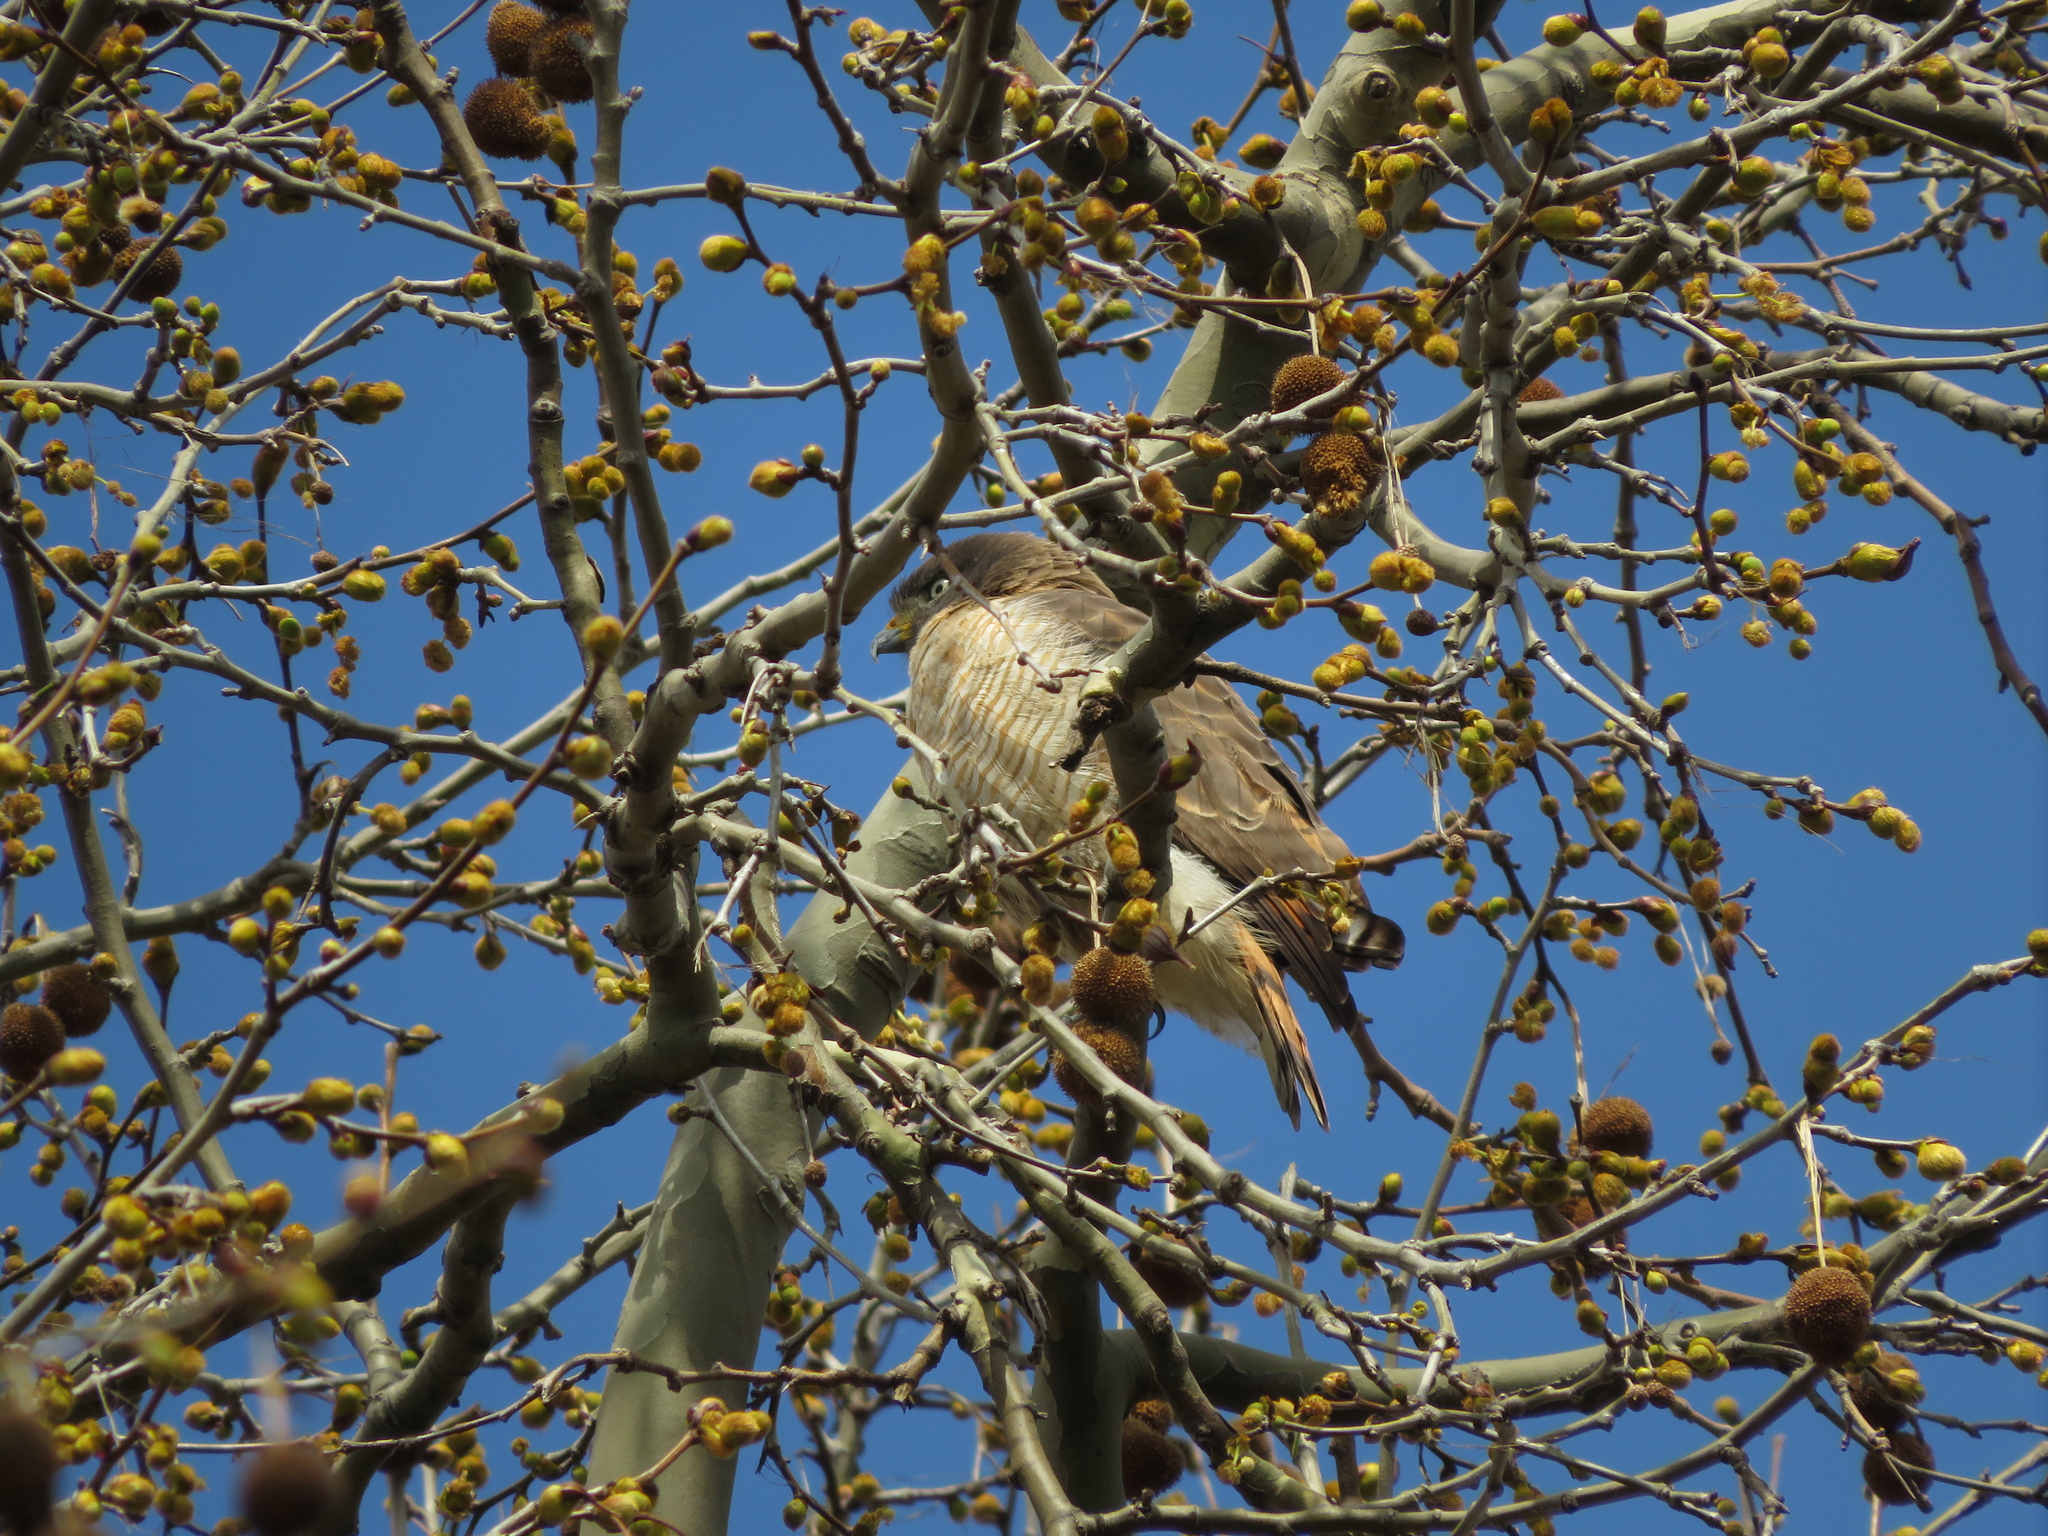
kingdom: Animalia
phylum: Chordata
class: Aves
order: Accipitriformes
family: Accipitridae
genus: Rupornis
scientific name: Rupornis magnirostris
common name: Roadside hawk
